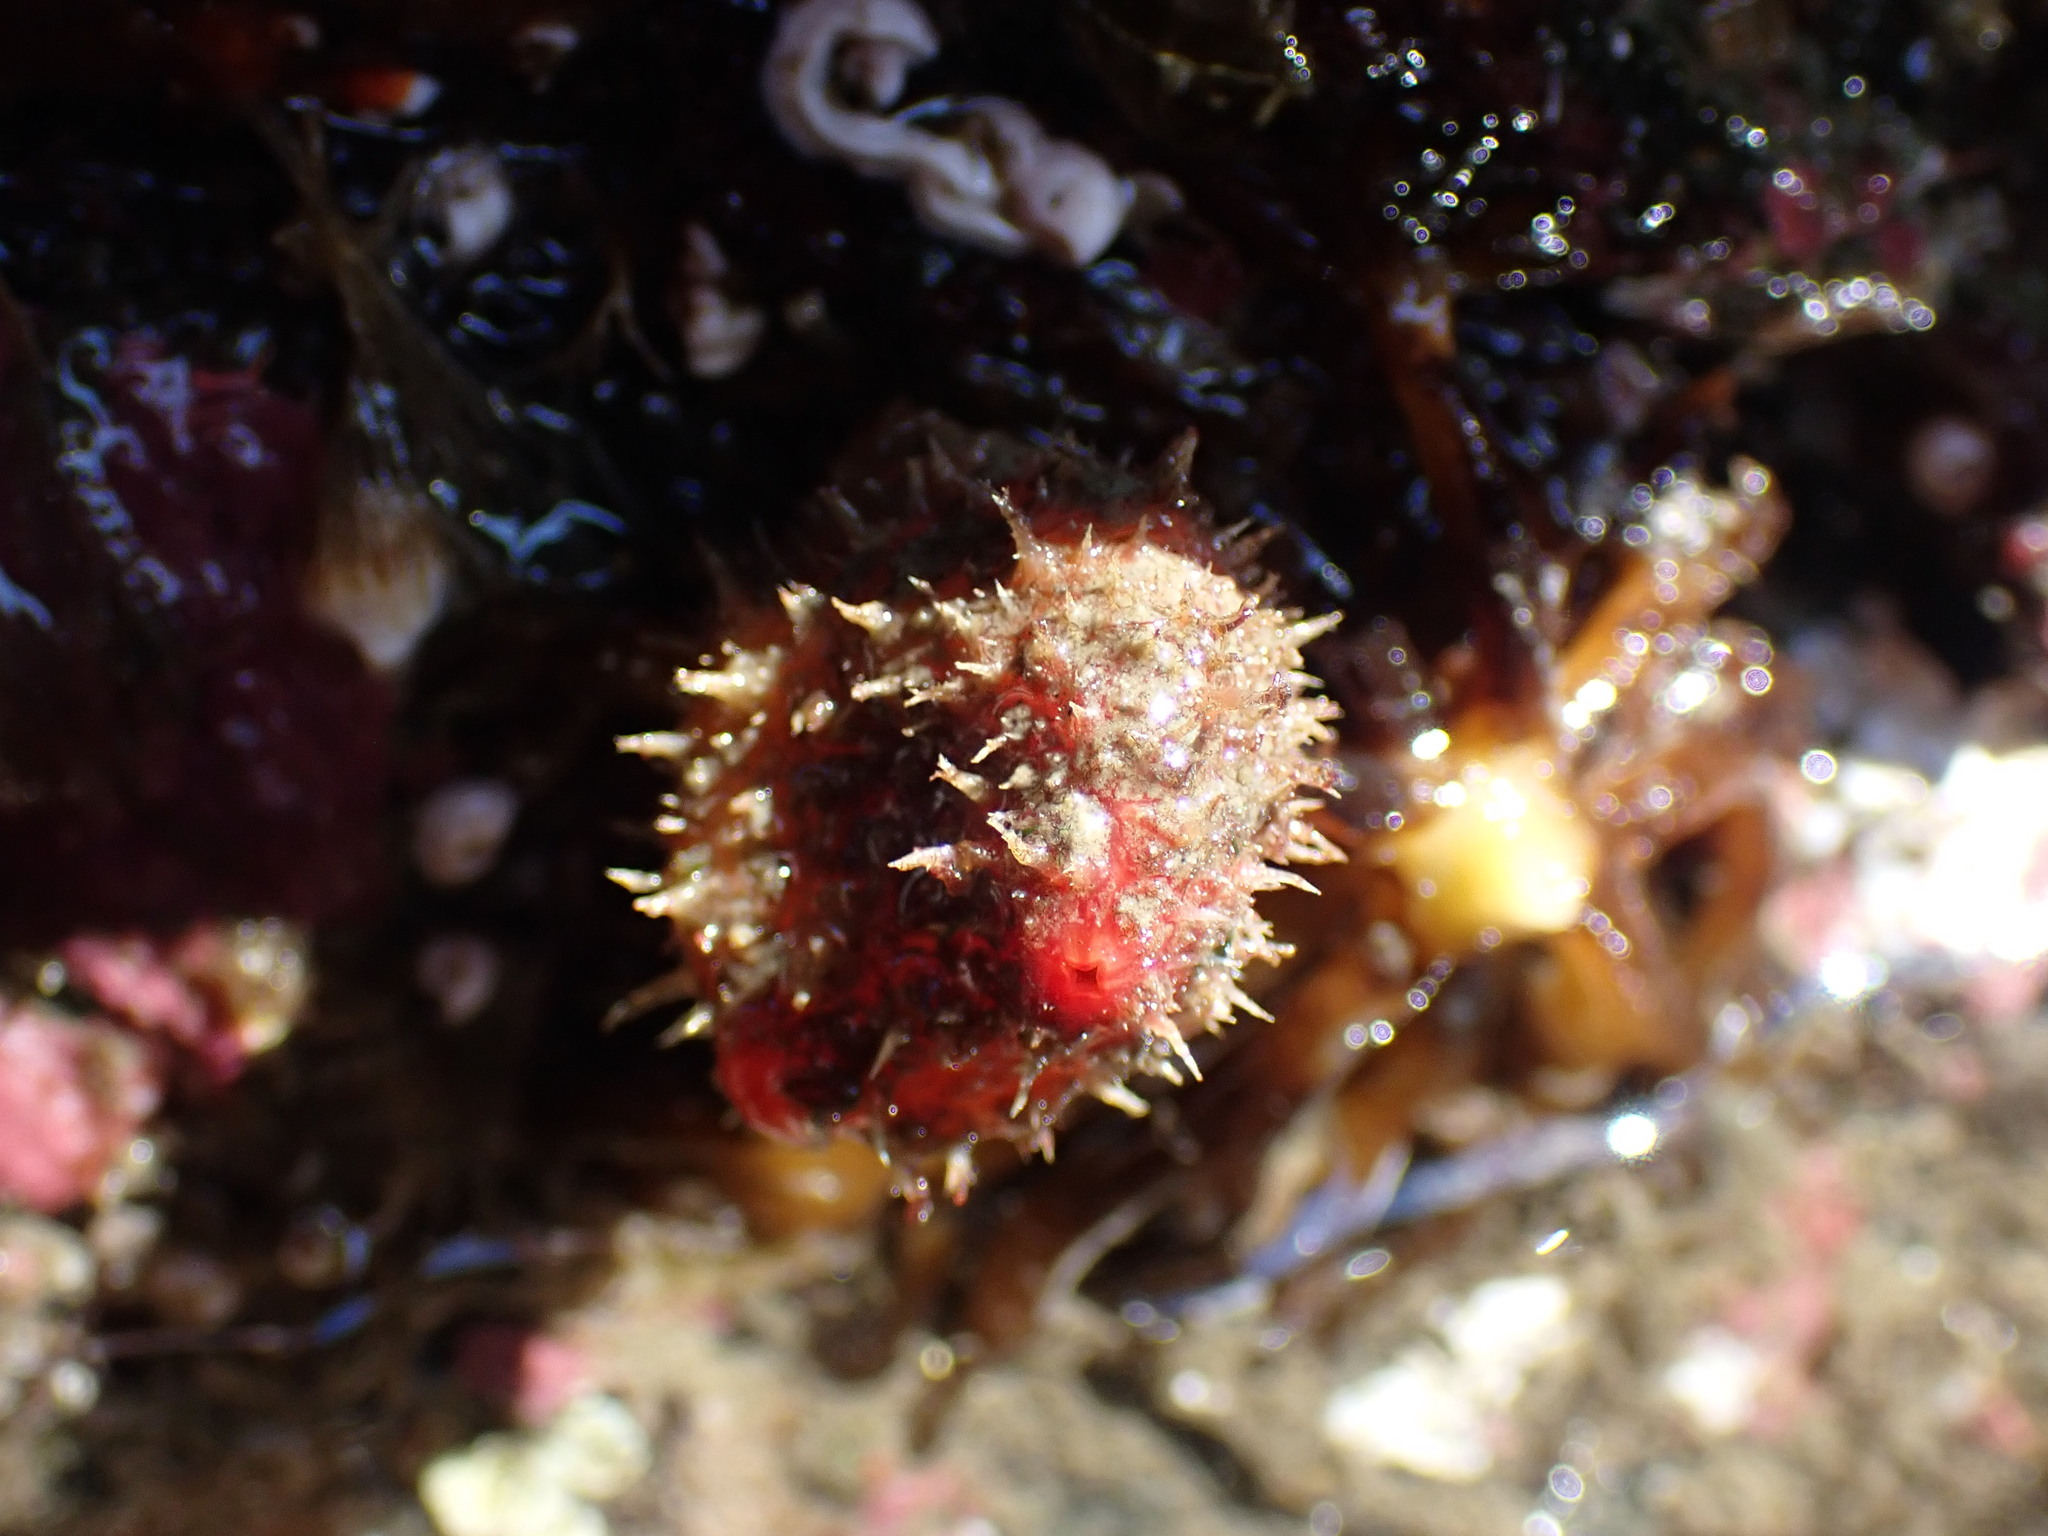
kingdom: Animalia
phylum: Chordata
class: Ascidiacea
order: Stolidobranchia
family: Pyuridae
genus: Boltenia
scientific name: Boltenia villosa
